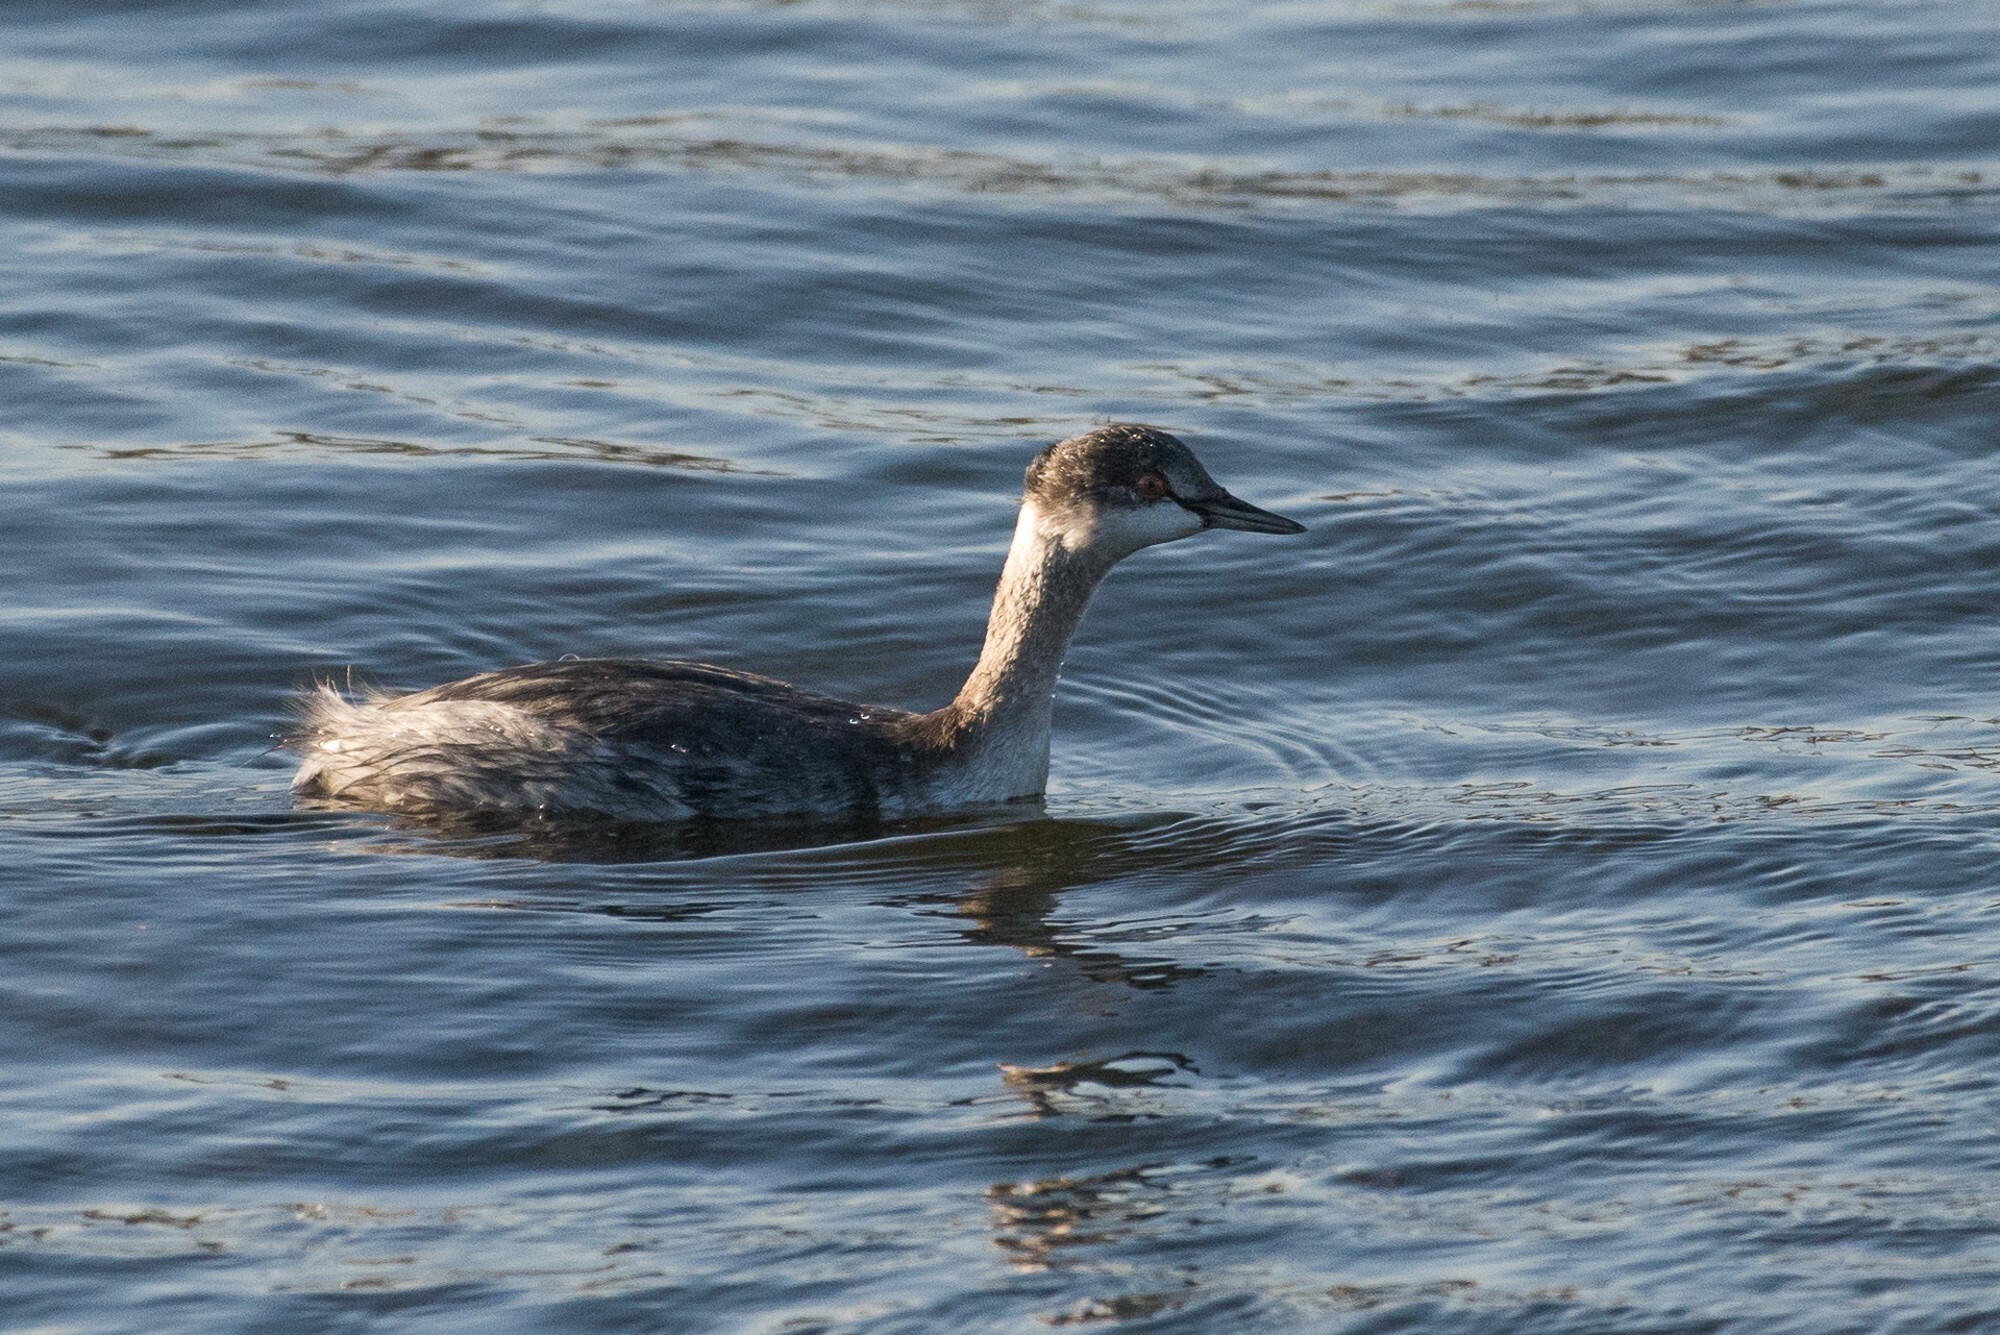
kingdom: Animalia
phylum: Chordata
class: Aves
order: Podicipediformes
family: Podicipedidae
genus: Podiceps
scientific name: Podiceps nigricollis
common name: Black-necked grebe
